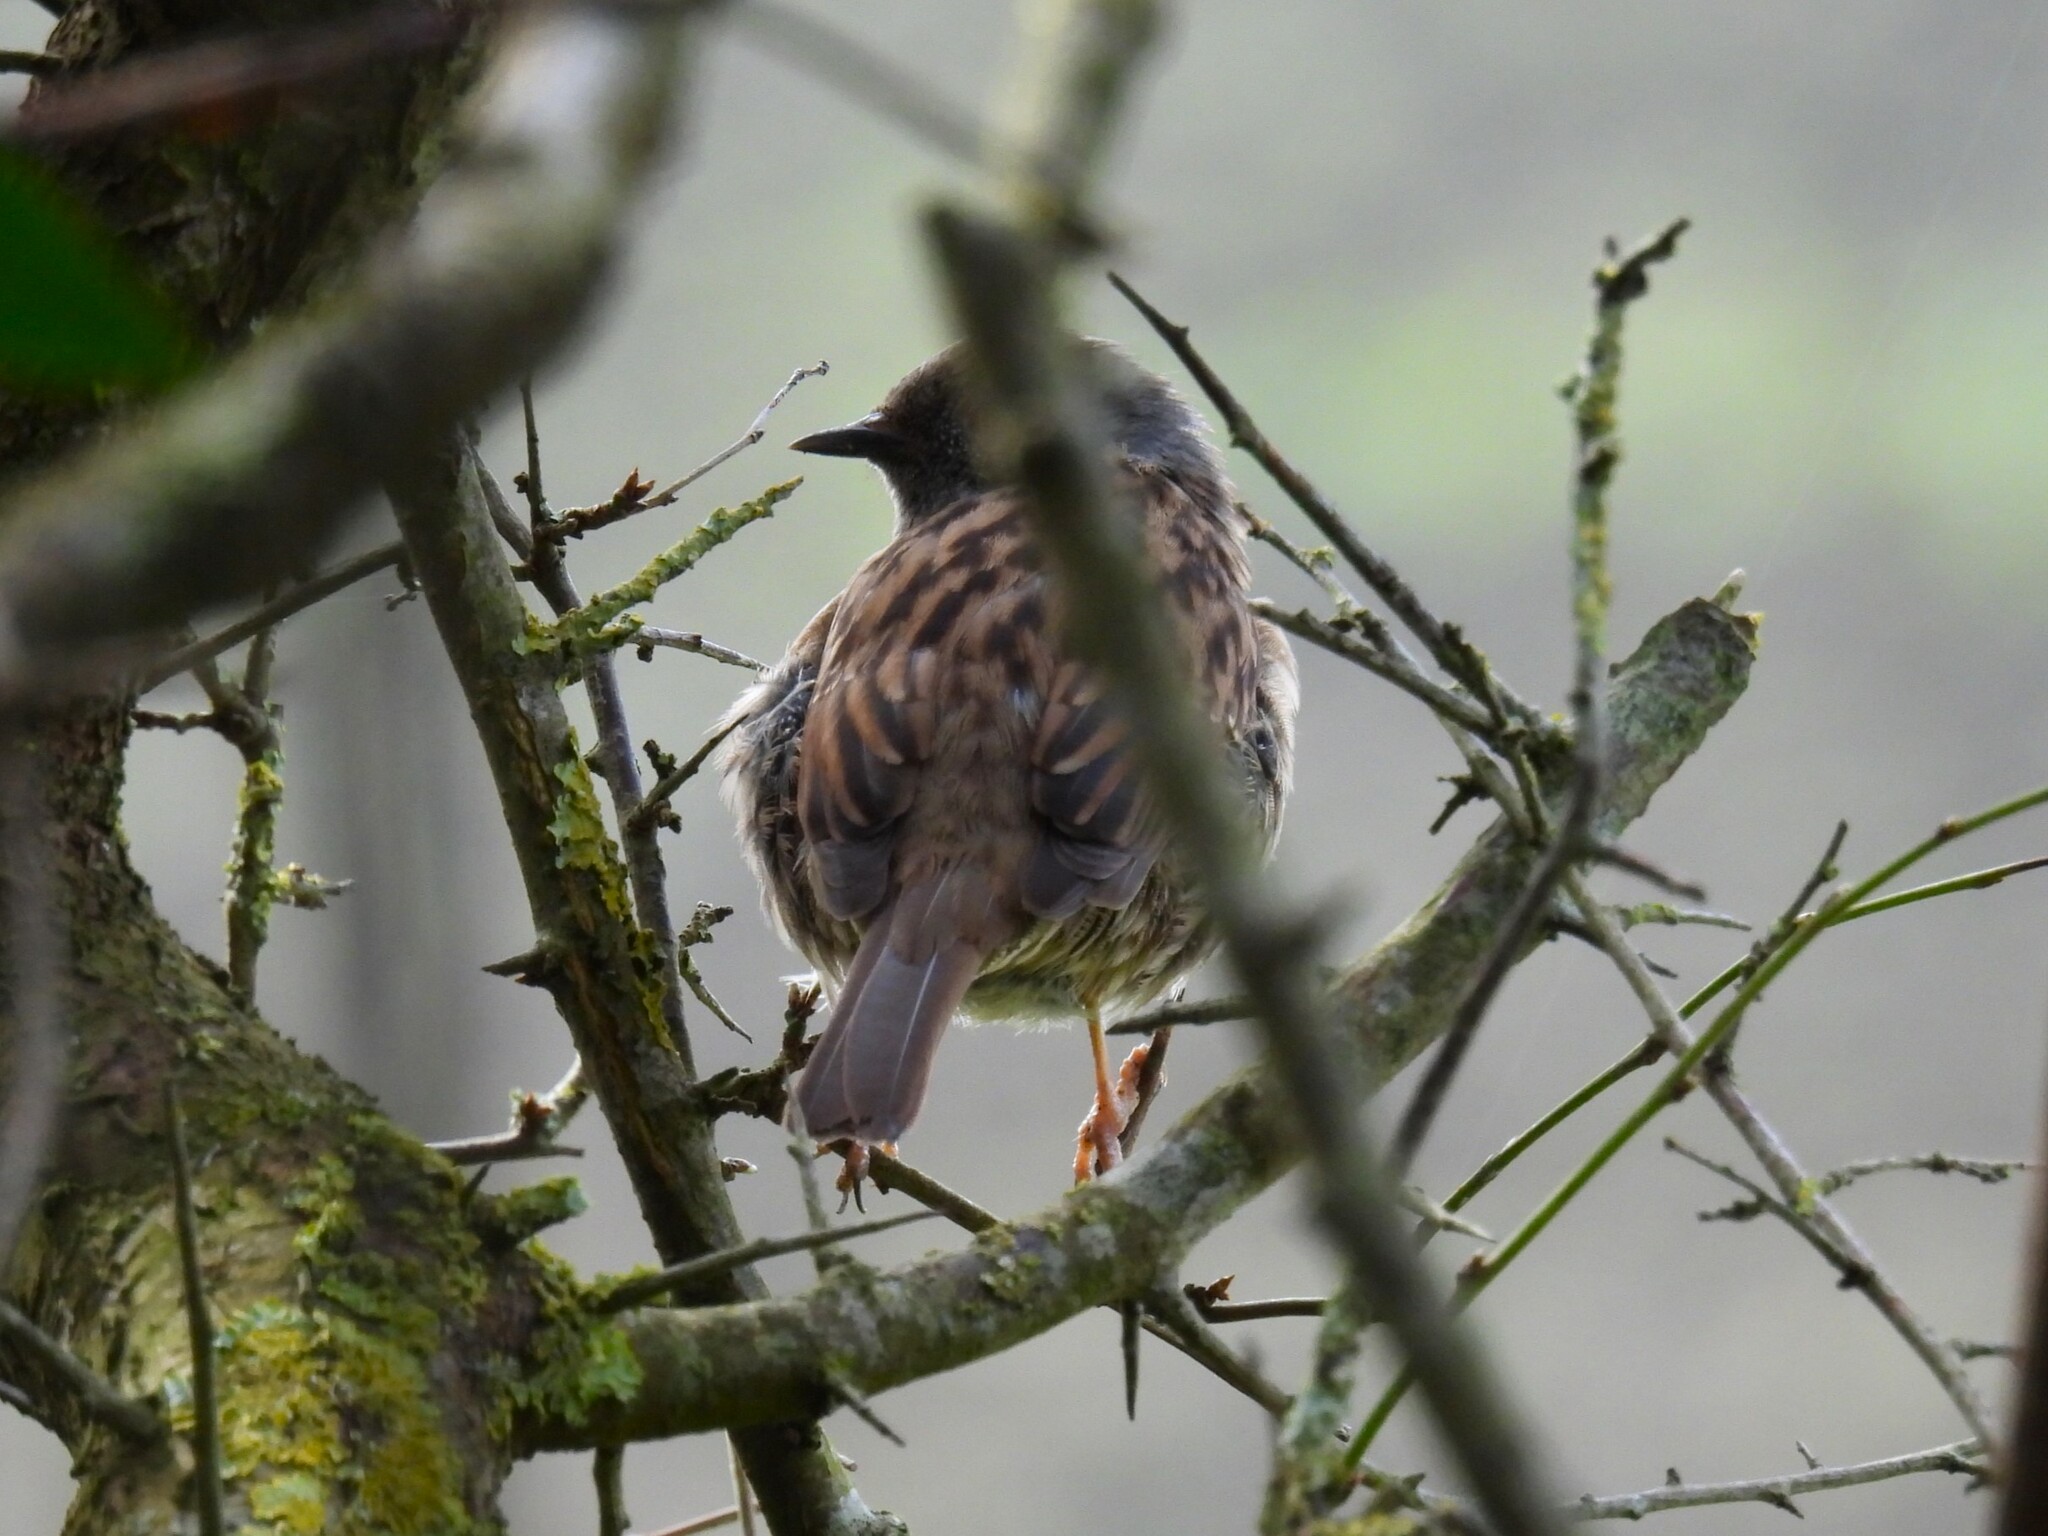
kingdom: Animalia
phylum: Chordata
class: Aves
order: Passeriformes
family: Prunellidae
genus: Prunella
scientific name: Prunella modularis
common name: Dunnock
